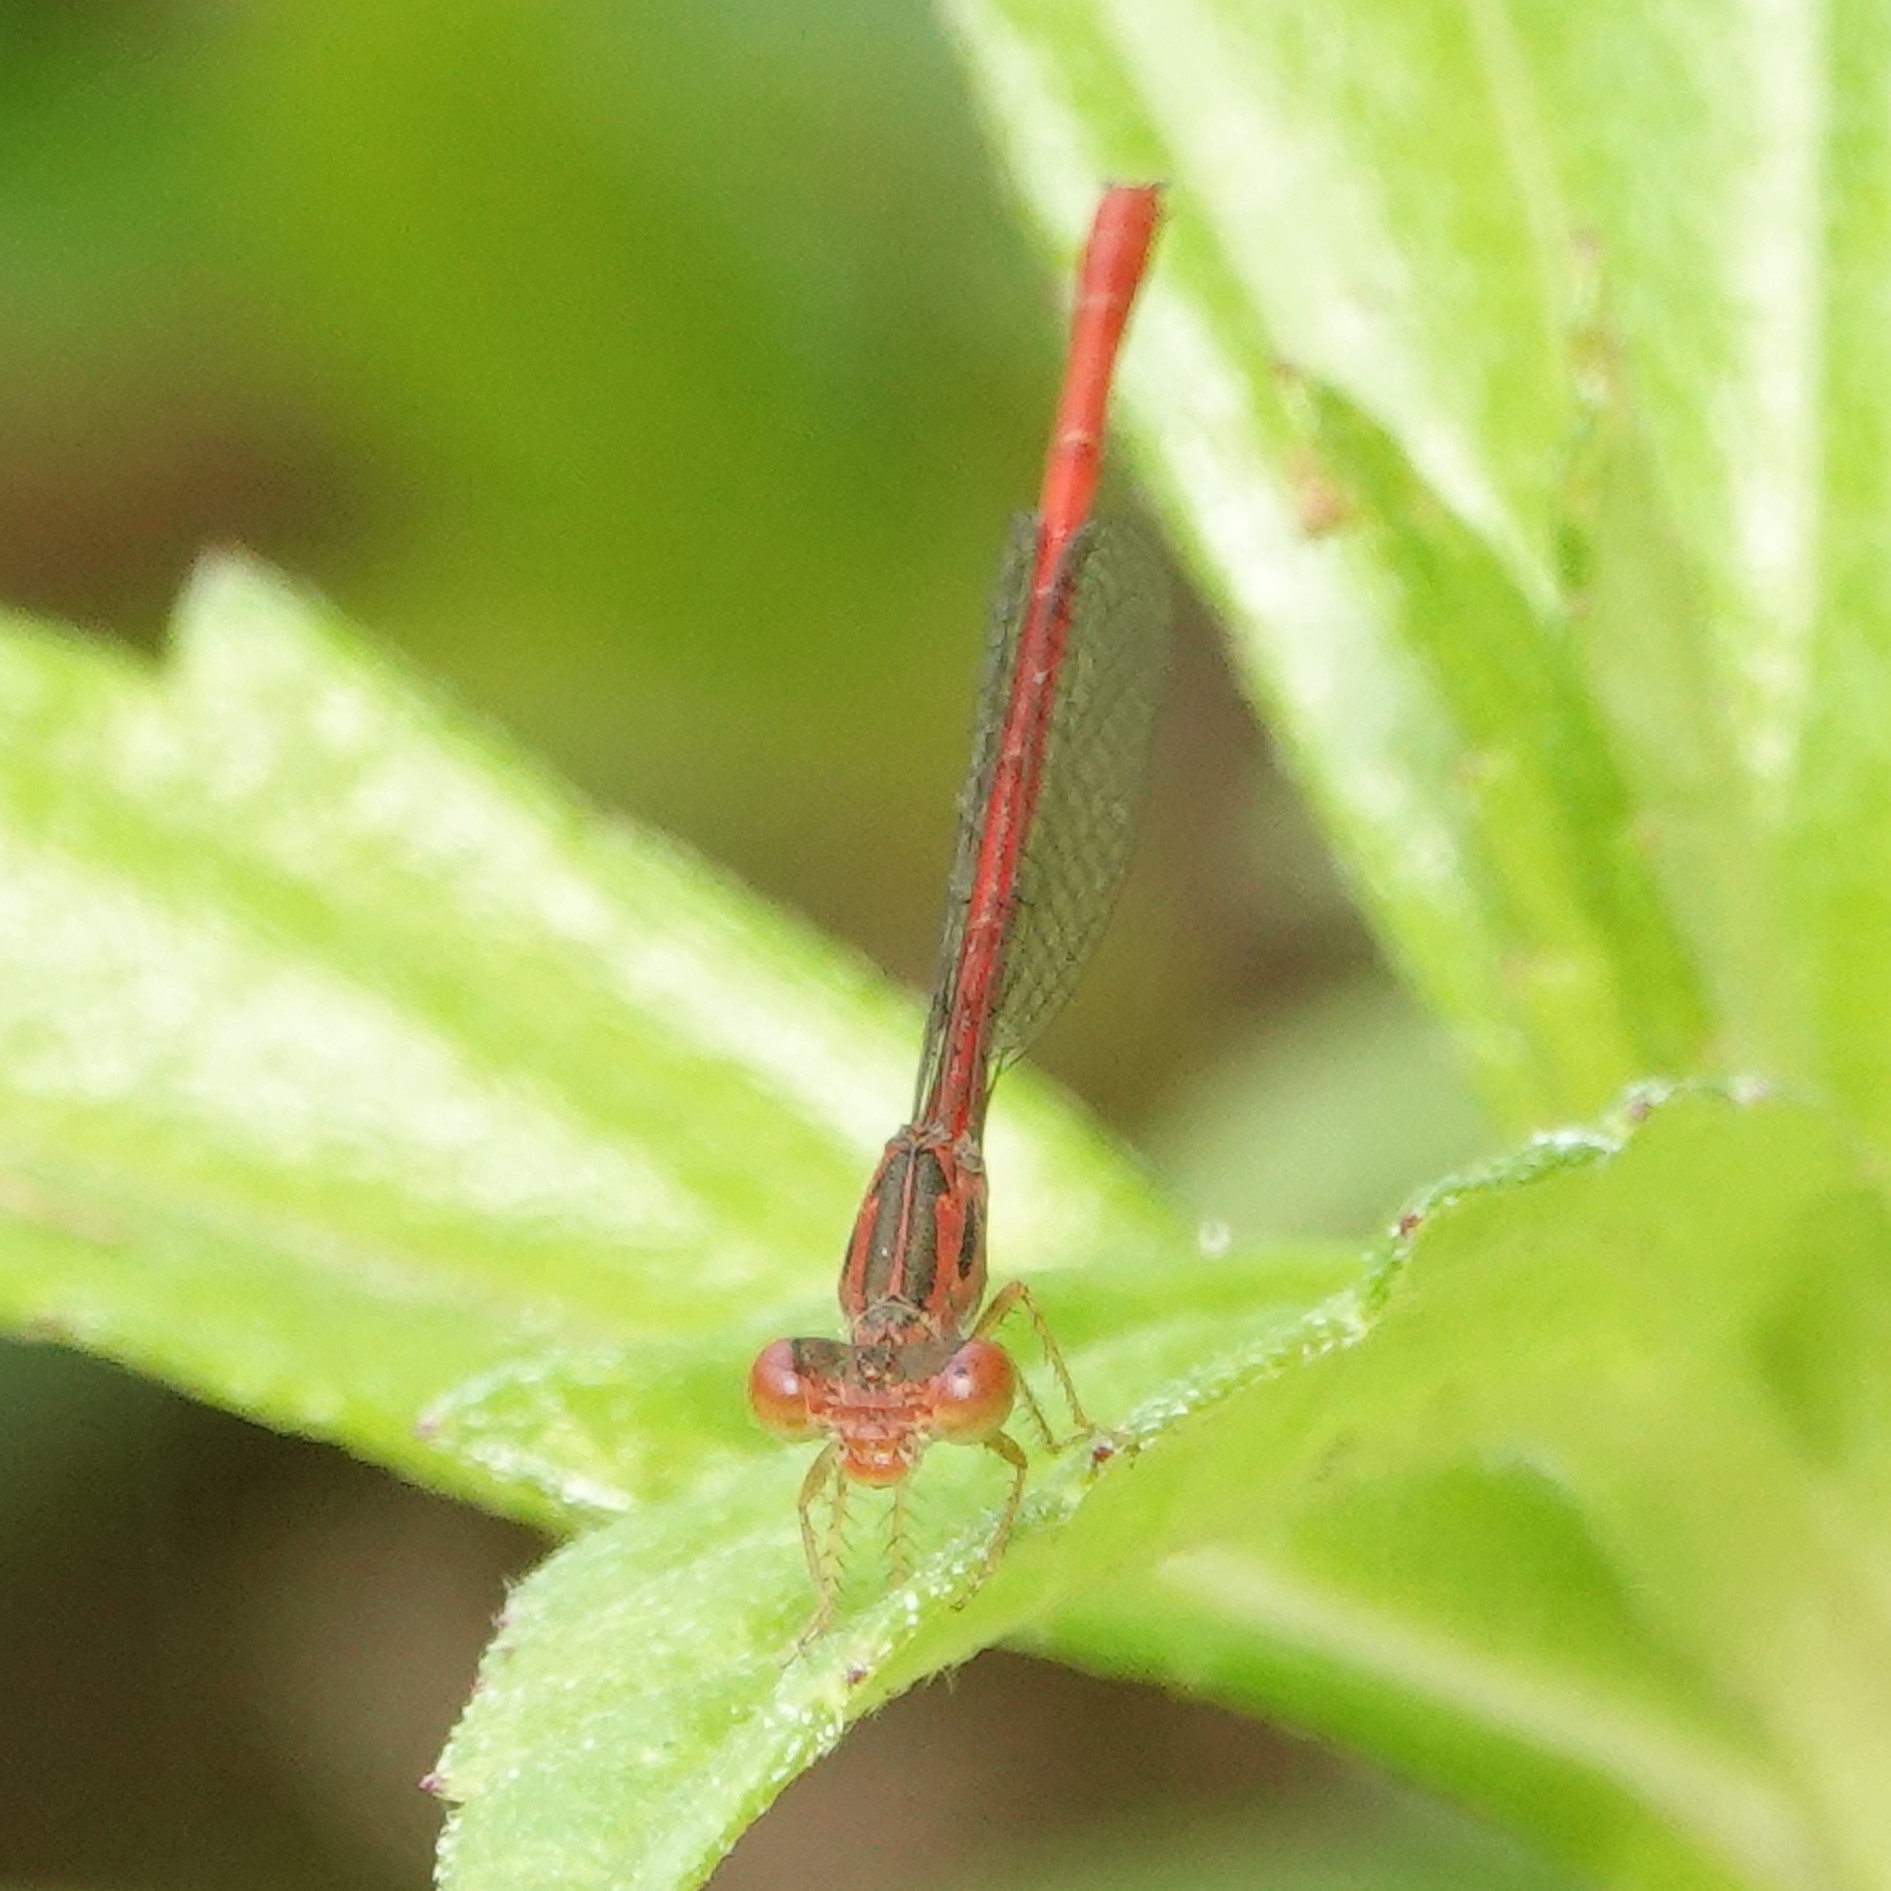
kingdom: Animalia
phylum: Arthropoda
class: Insecta
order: Odonata
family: Coenagrionidae
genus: Telebasis
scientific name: Telebasis byersi
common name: Duckweed firetail
